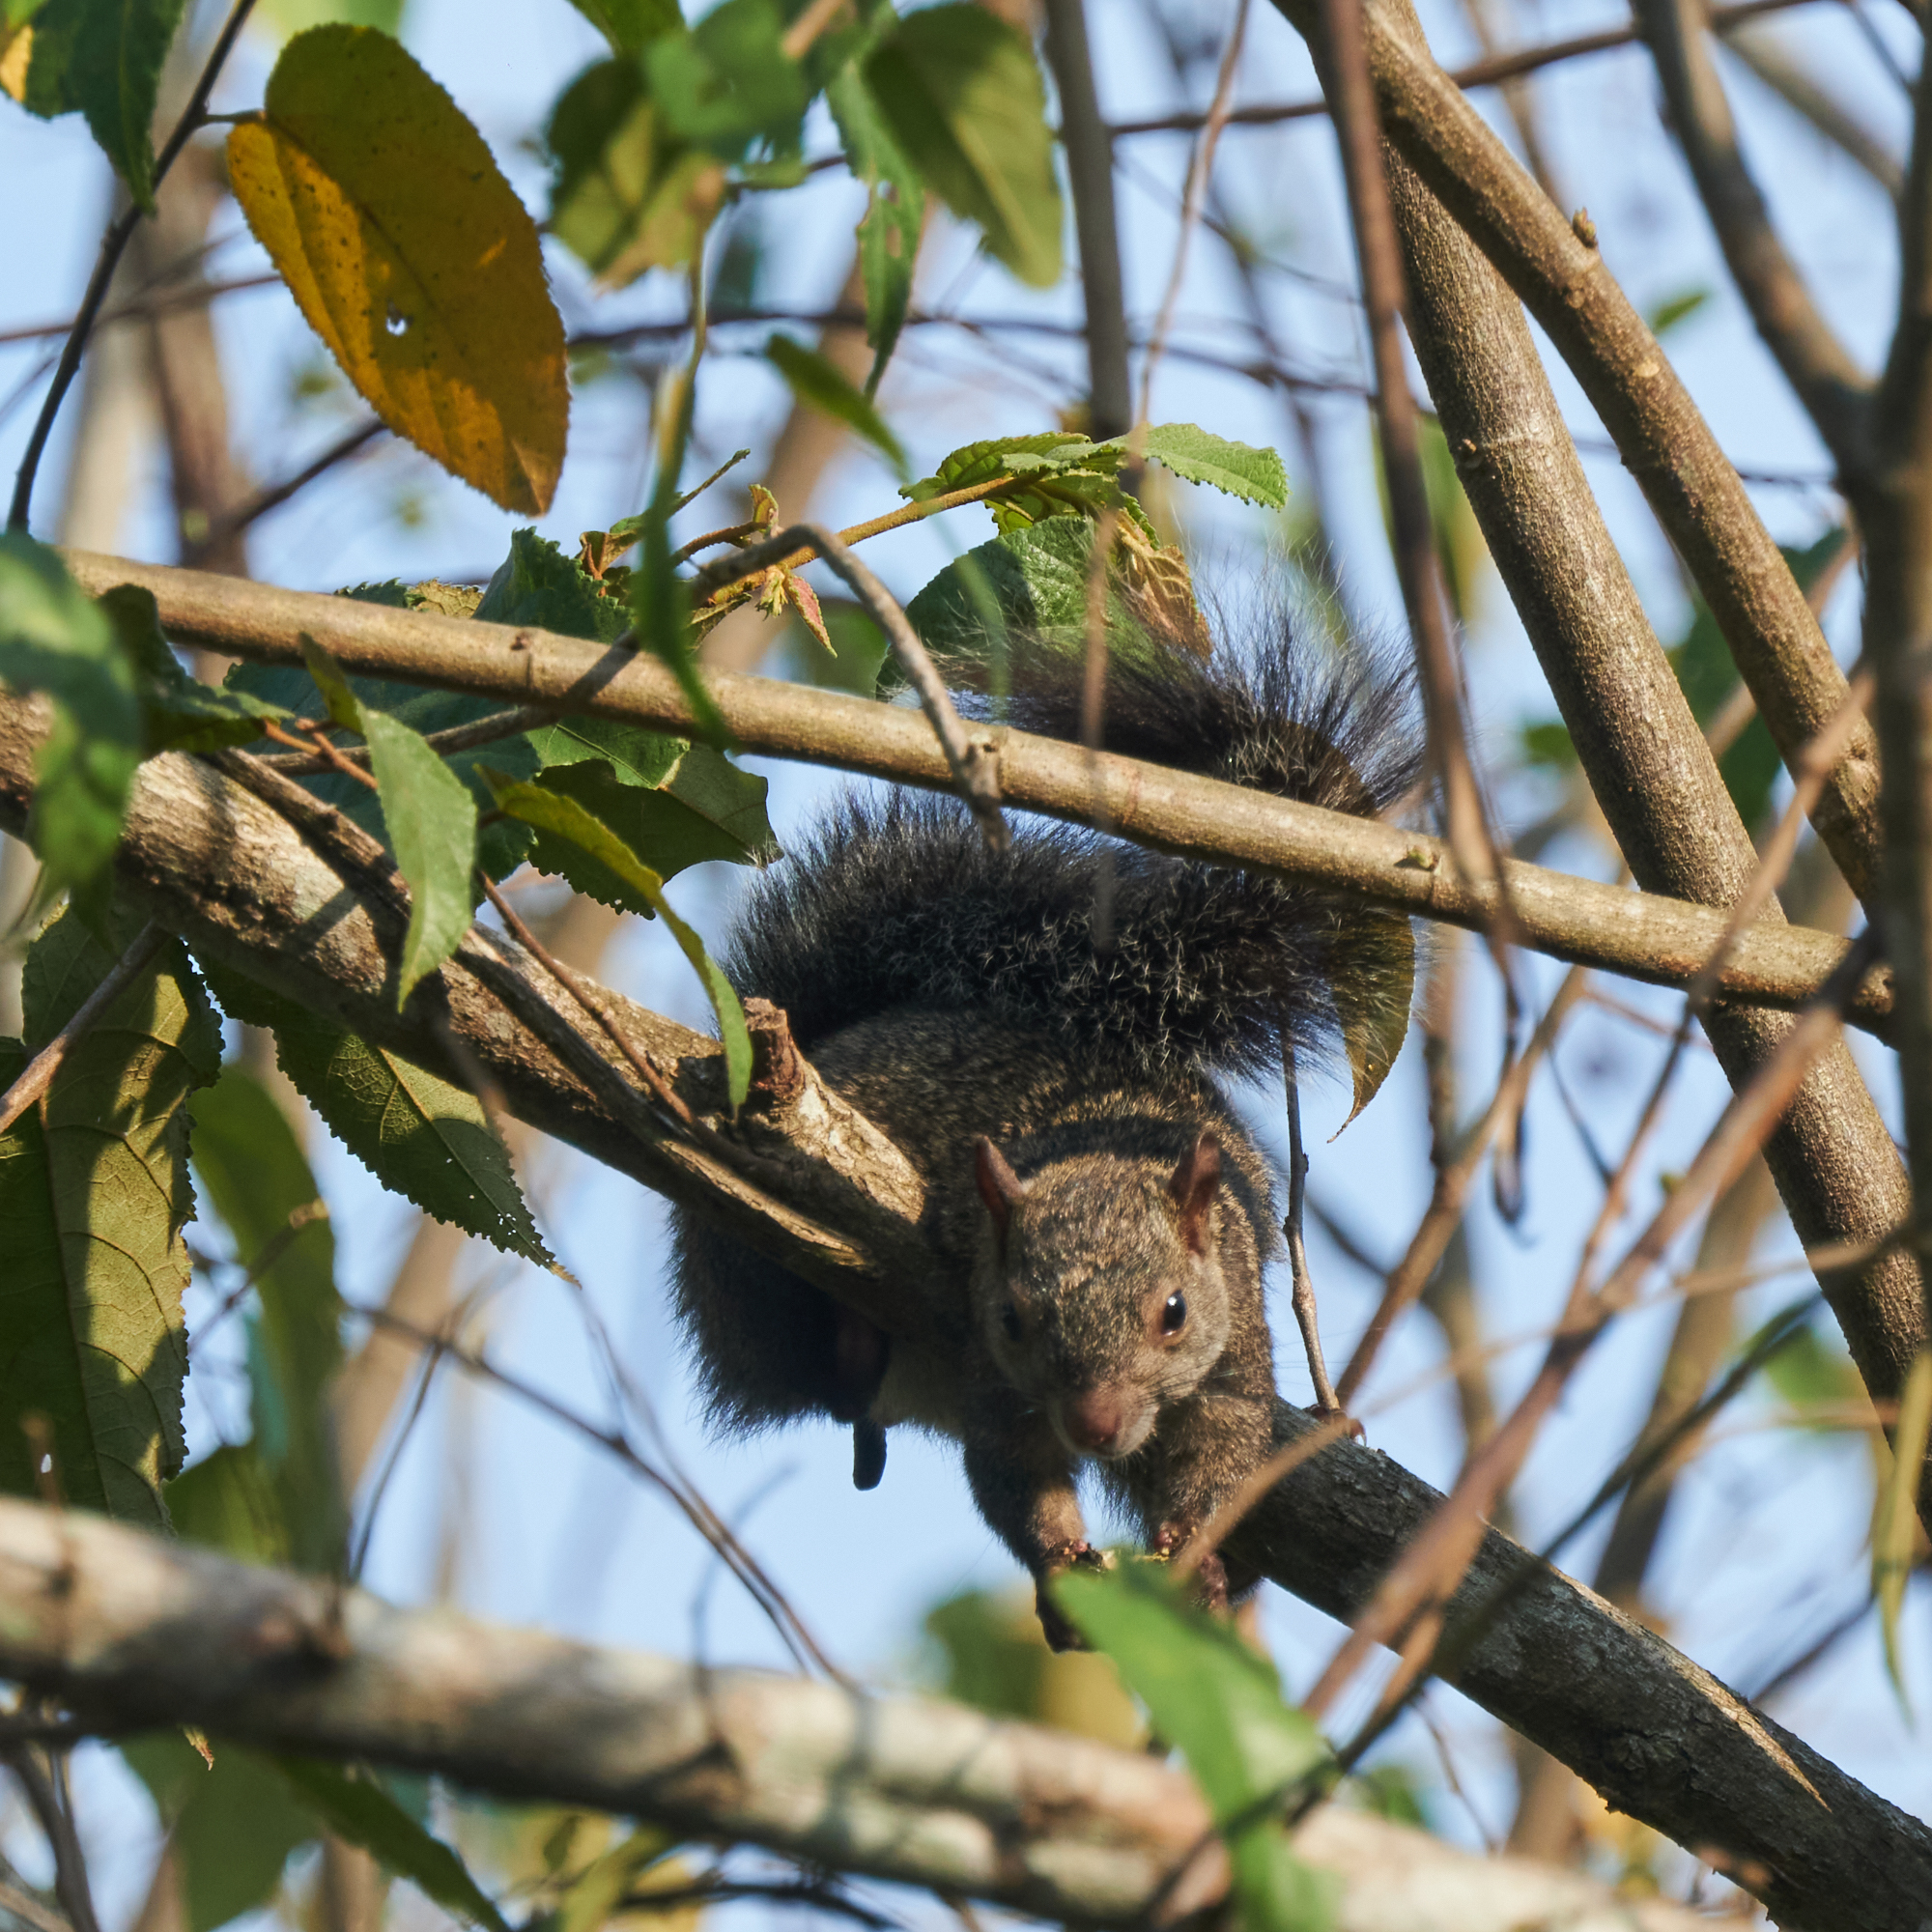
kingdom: Animalia
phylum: Chordata
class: Mammalia
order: Rodentia
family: Sciuridae
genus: Sciurus
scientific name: Sciurus yucatanensis
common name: Yucatan squirrel
